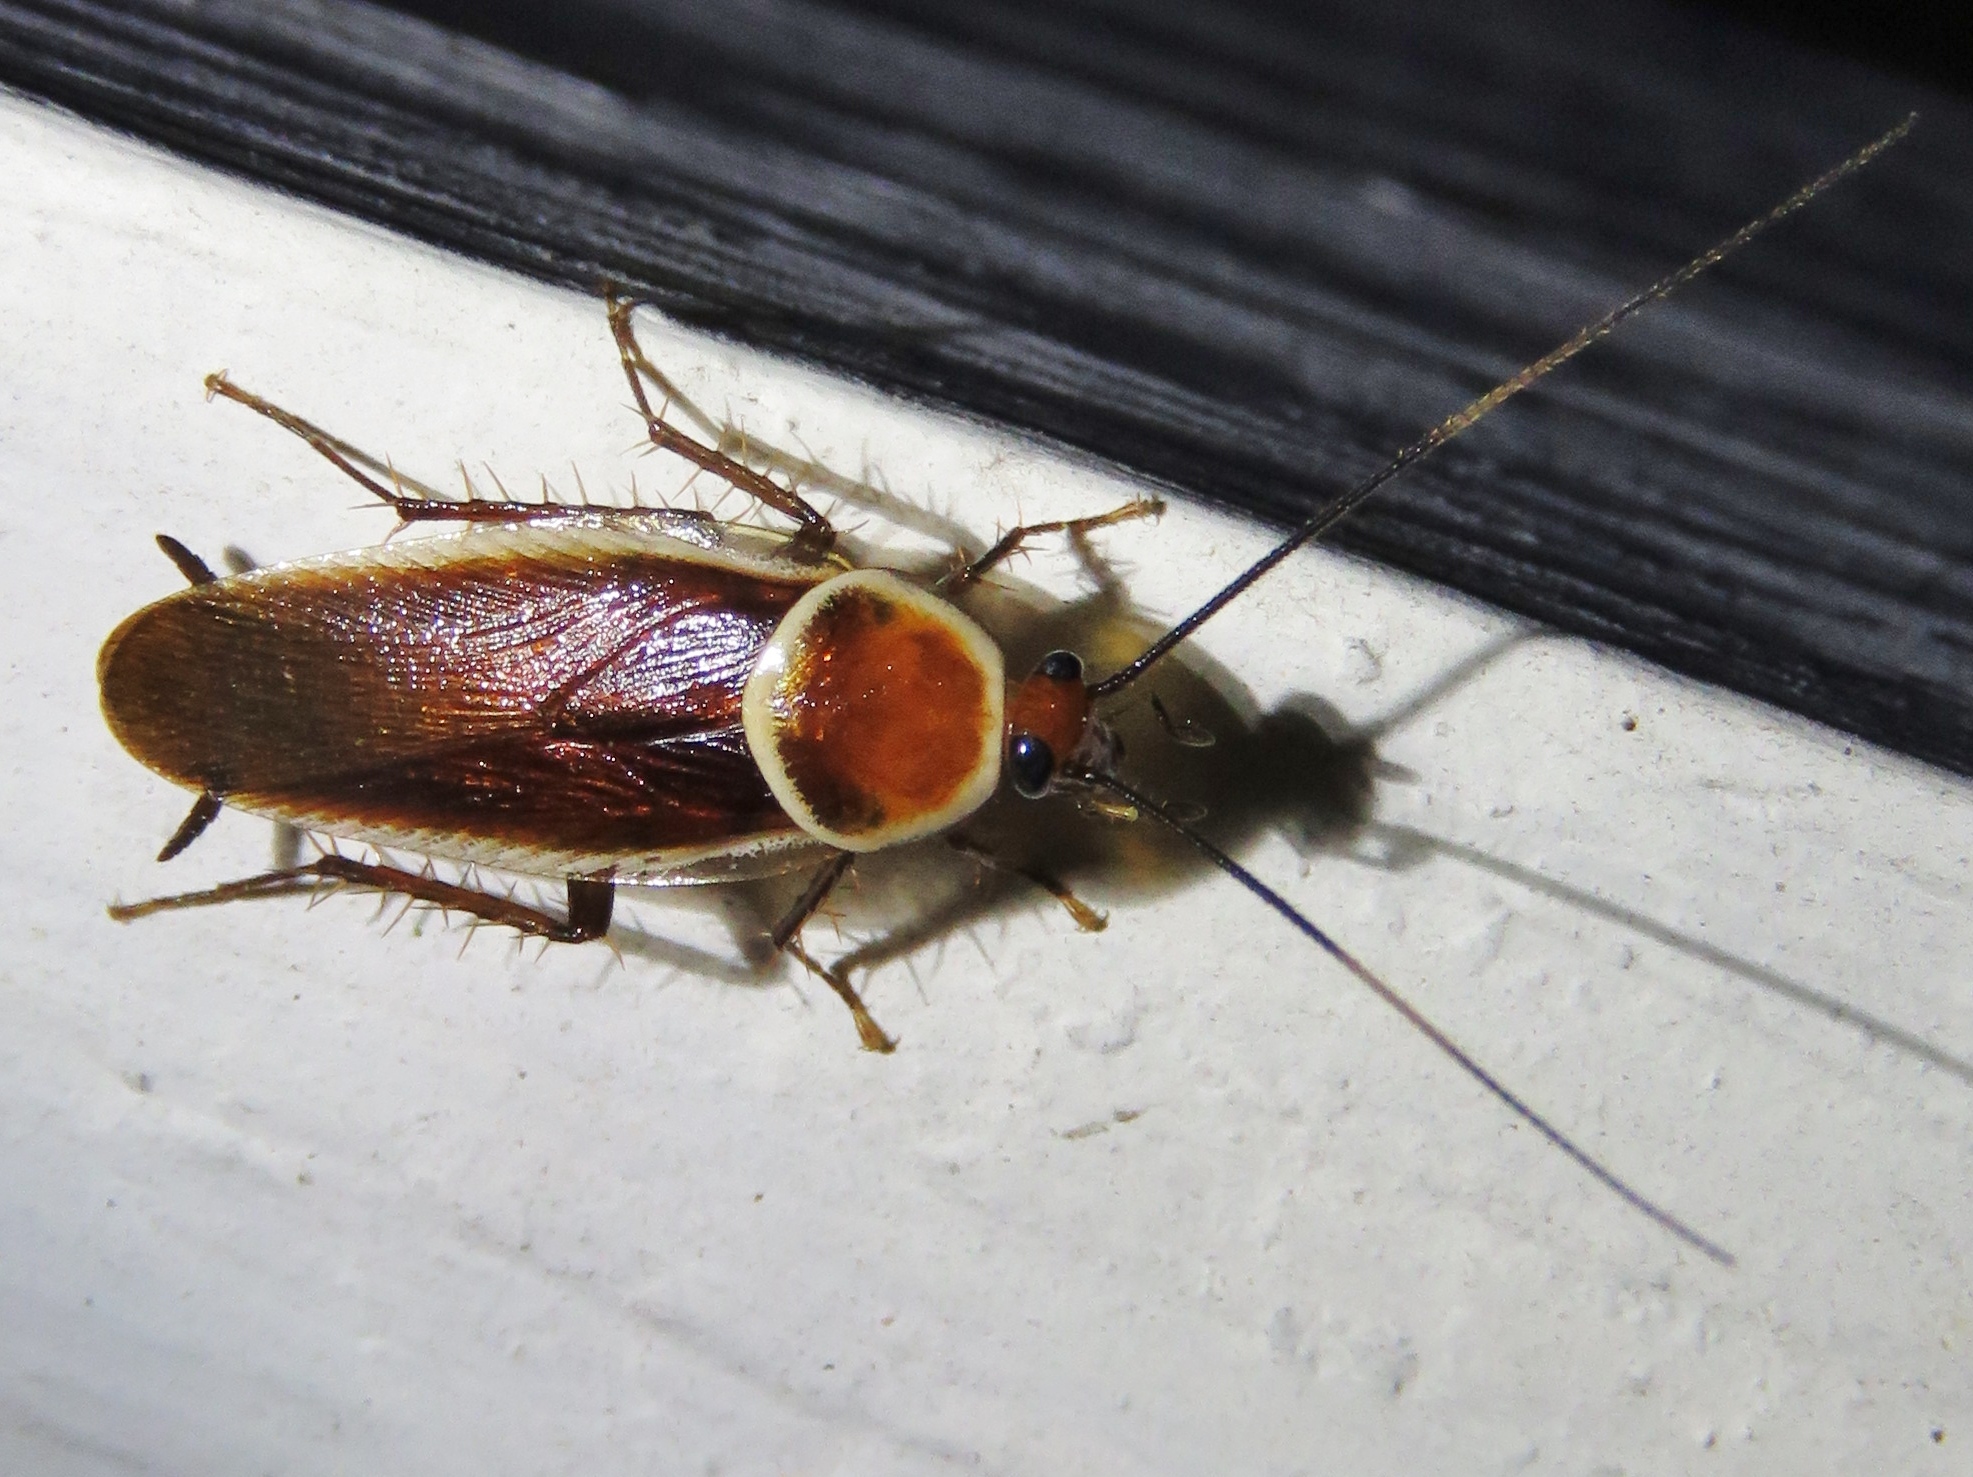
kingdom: Animalia
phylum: Arthropoda
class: Insecta
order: Blattodea
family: Ectobiidae
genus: Pseudomops
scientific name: Pseudomops septentrionalis
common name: Pale-bordered field cockroach
